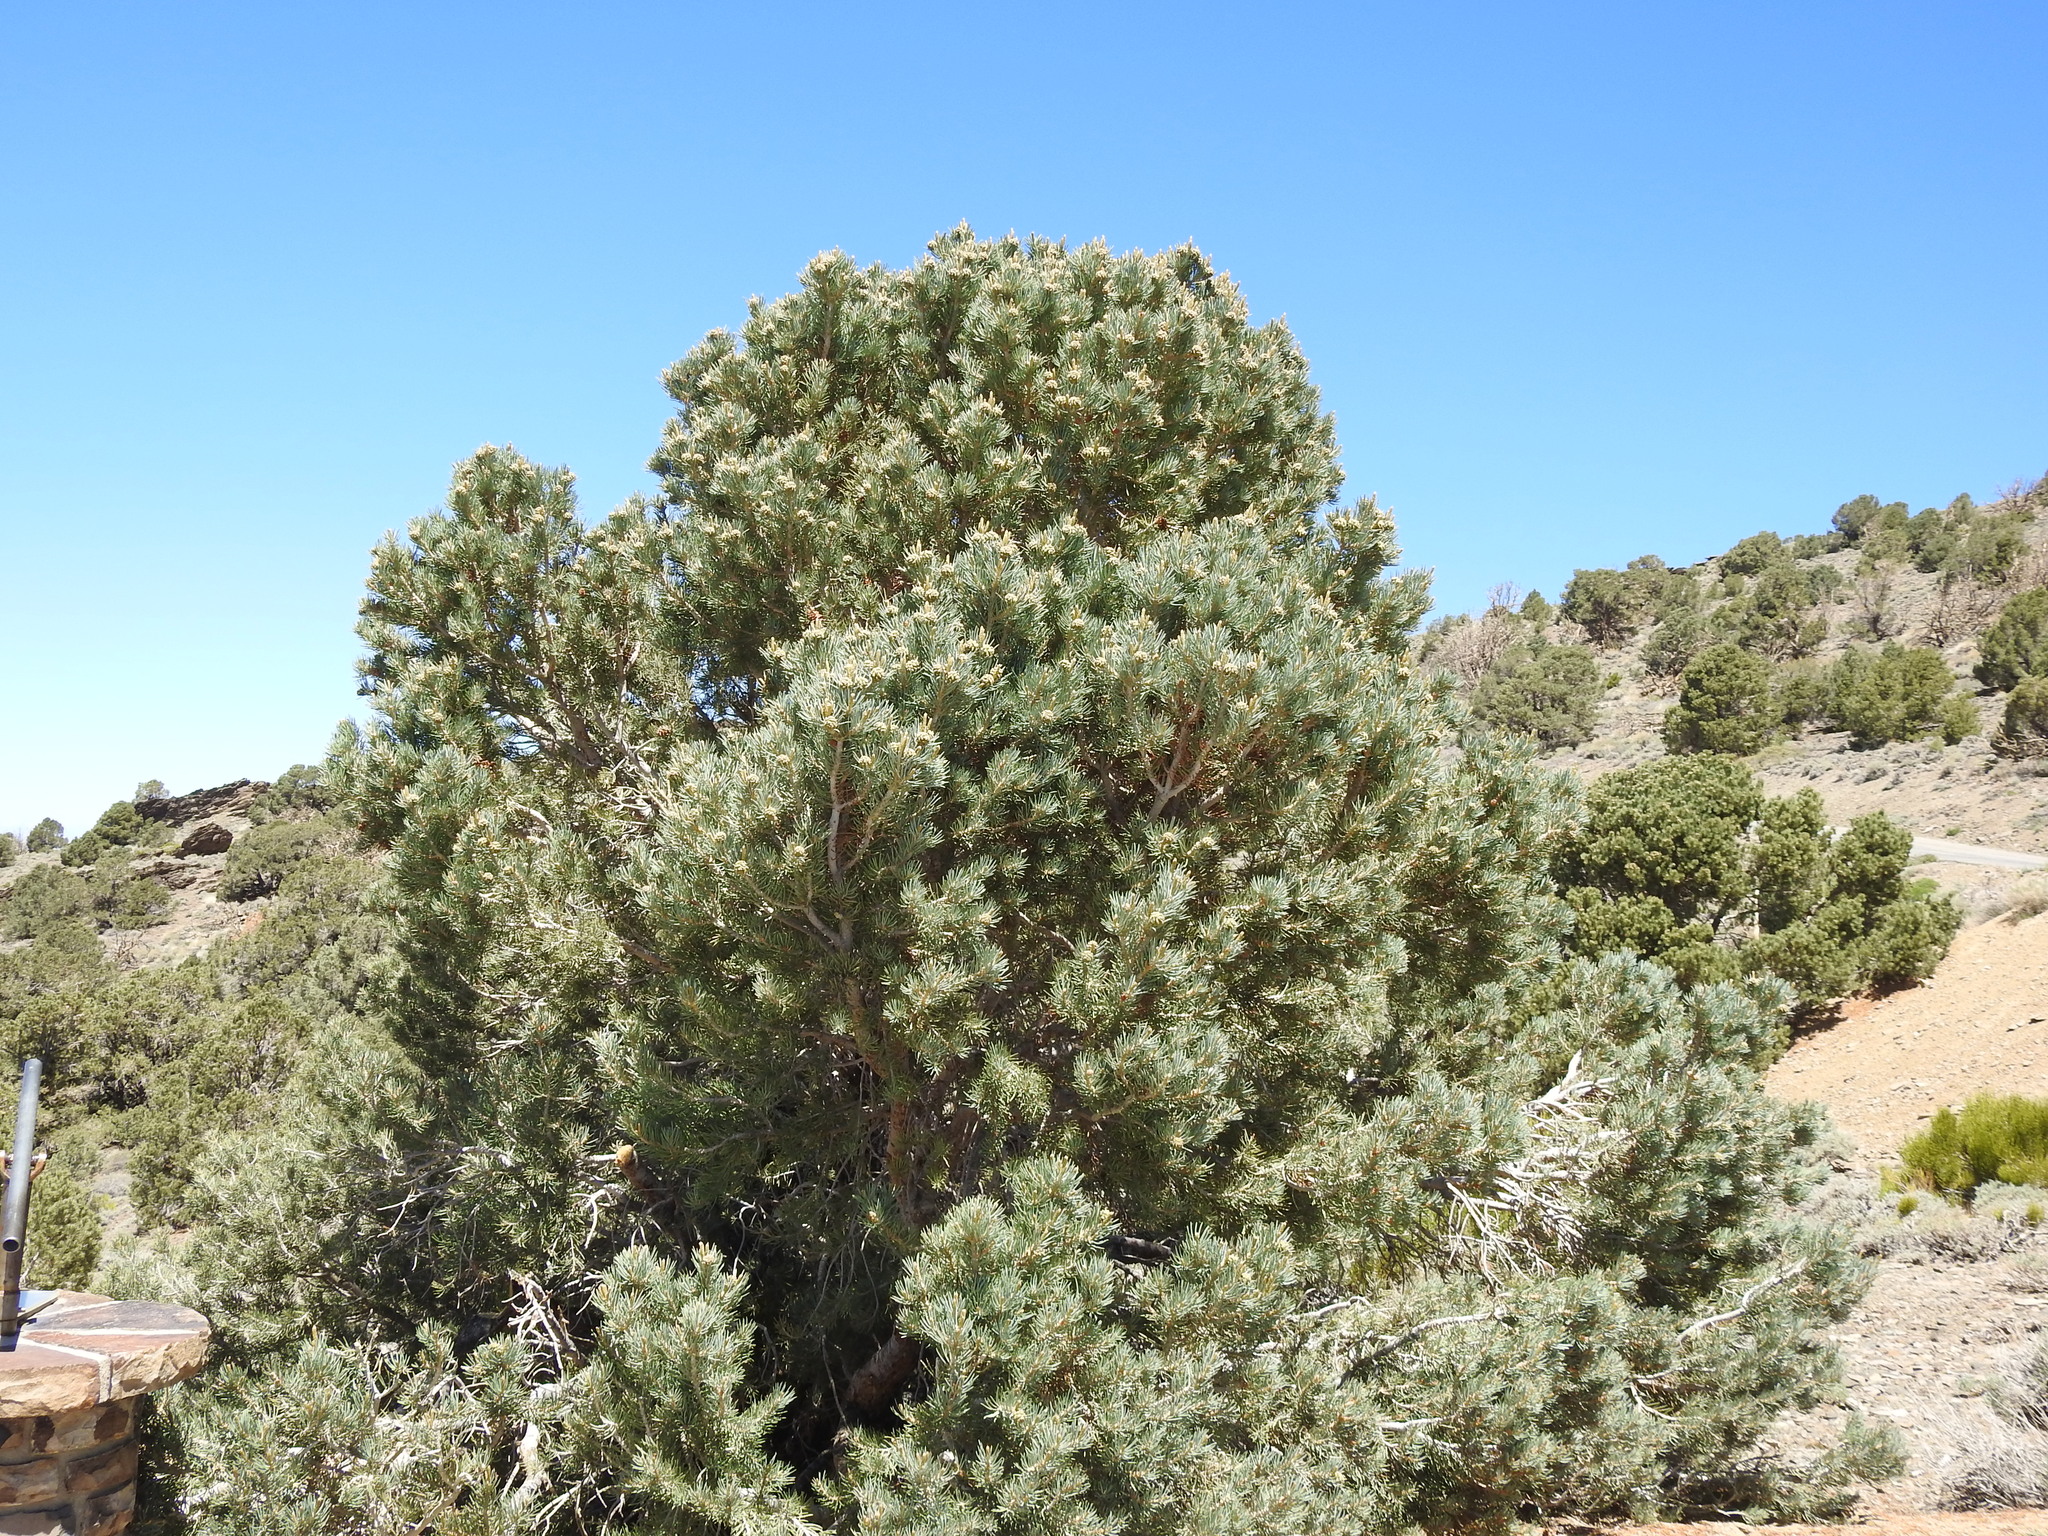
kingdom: Plantae
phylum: Tracheophyta
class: Pinopsida
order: Pinales
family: Pinaceae
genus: Pinus
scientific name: Pinus monophylla
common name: One-leaved nut pine
